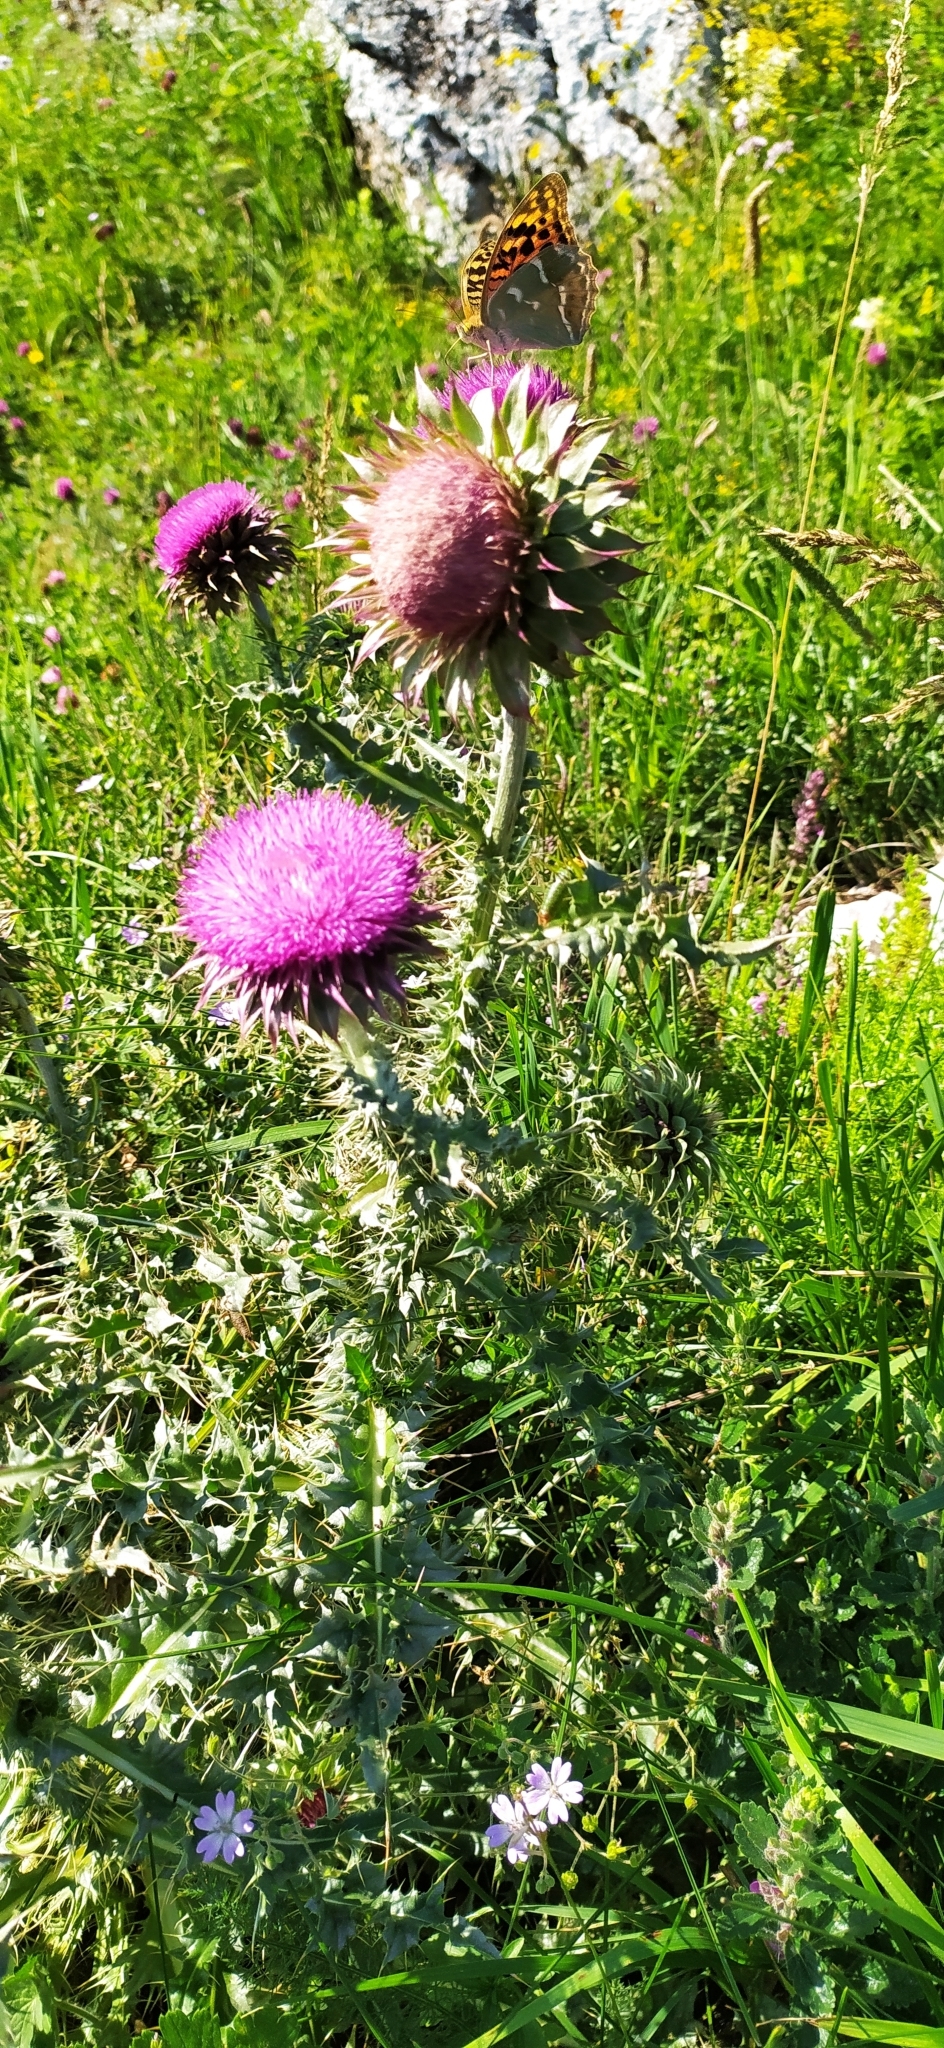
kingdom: Plantae
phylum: Tracheophyta
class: Magnoliopsida
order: Asterales
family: Asteraceae
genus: Carduus
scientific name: Carduus nutans
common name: Musk thistle
